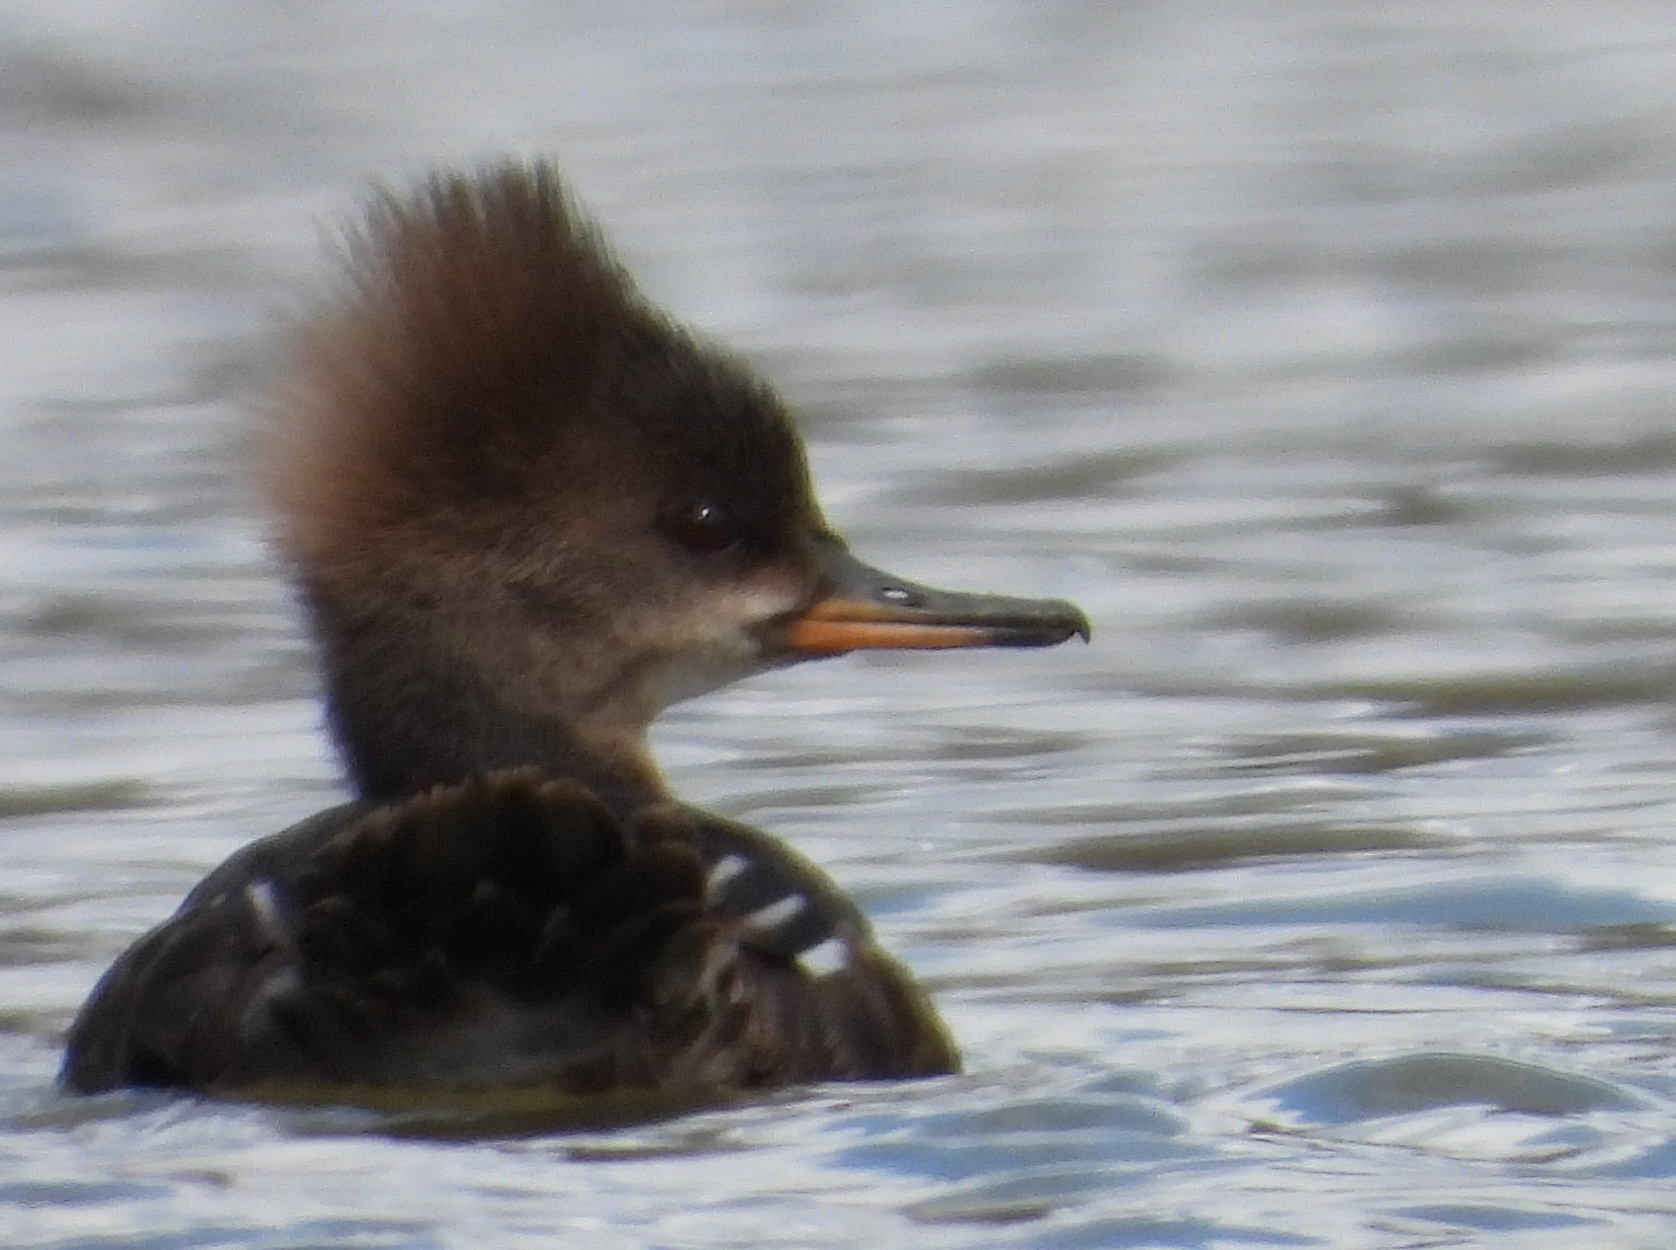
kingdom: Animalia
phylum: Chordata
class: Aves
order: Anseriformes
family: Anatidae
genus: Lophodytes
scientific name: Lophodytes cucullatus
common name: Hooded merganser
